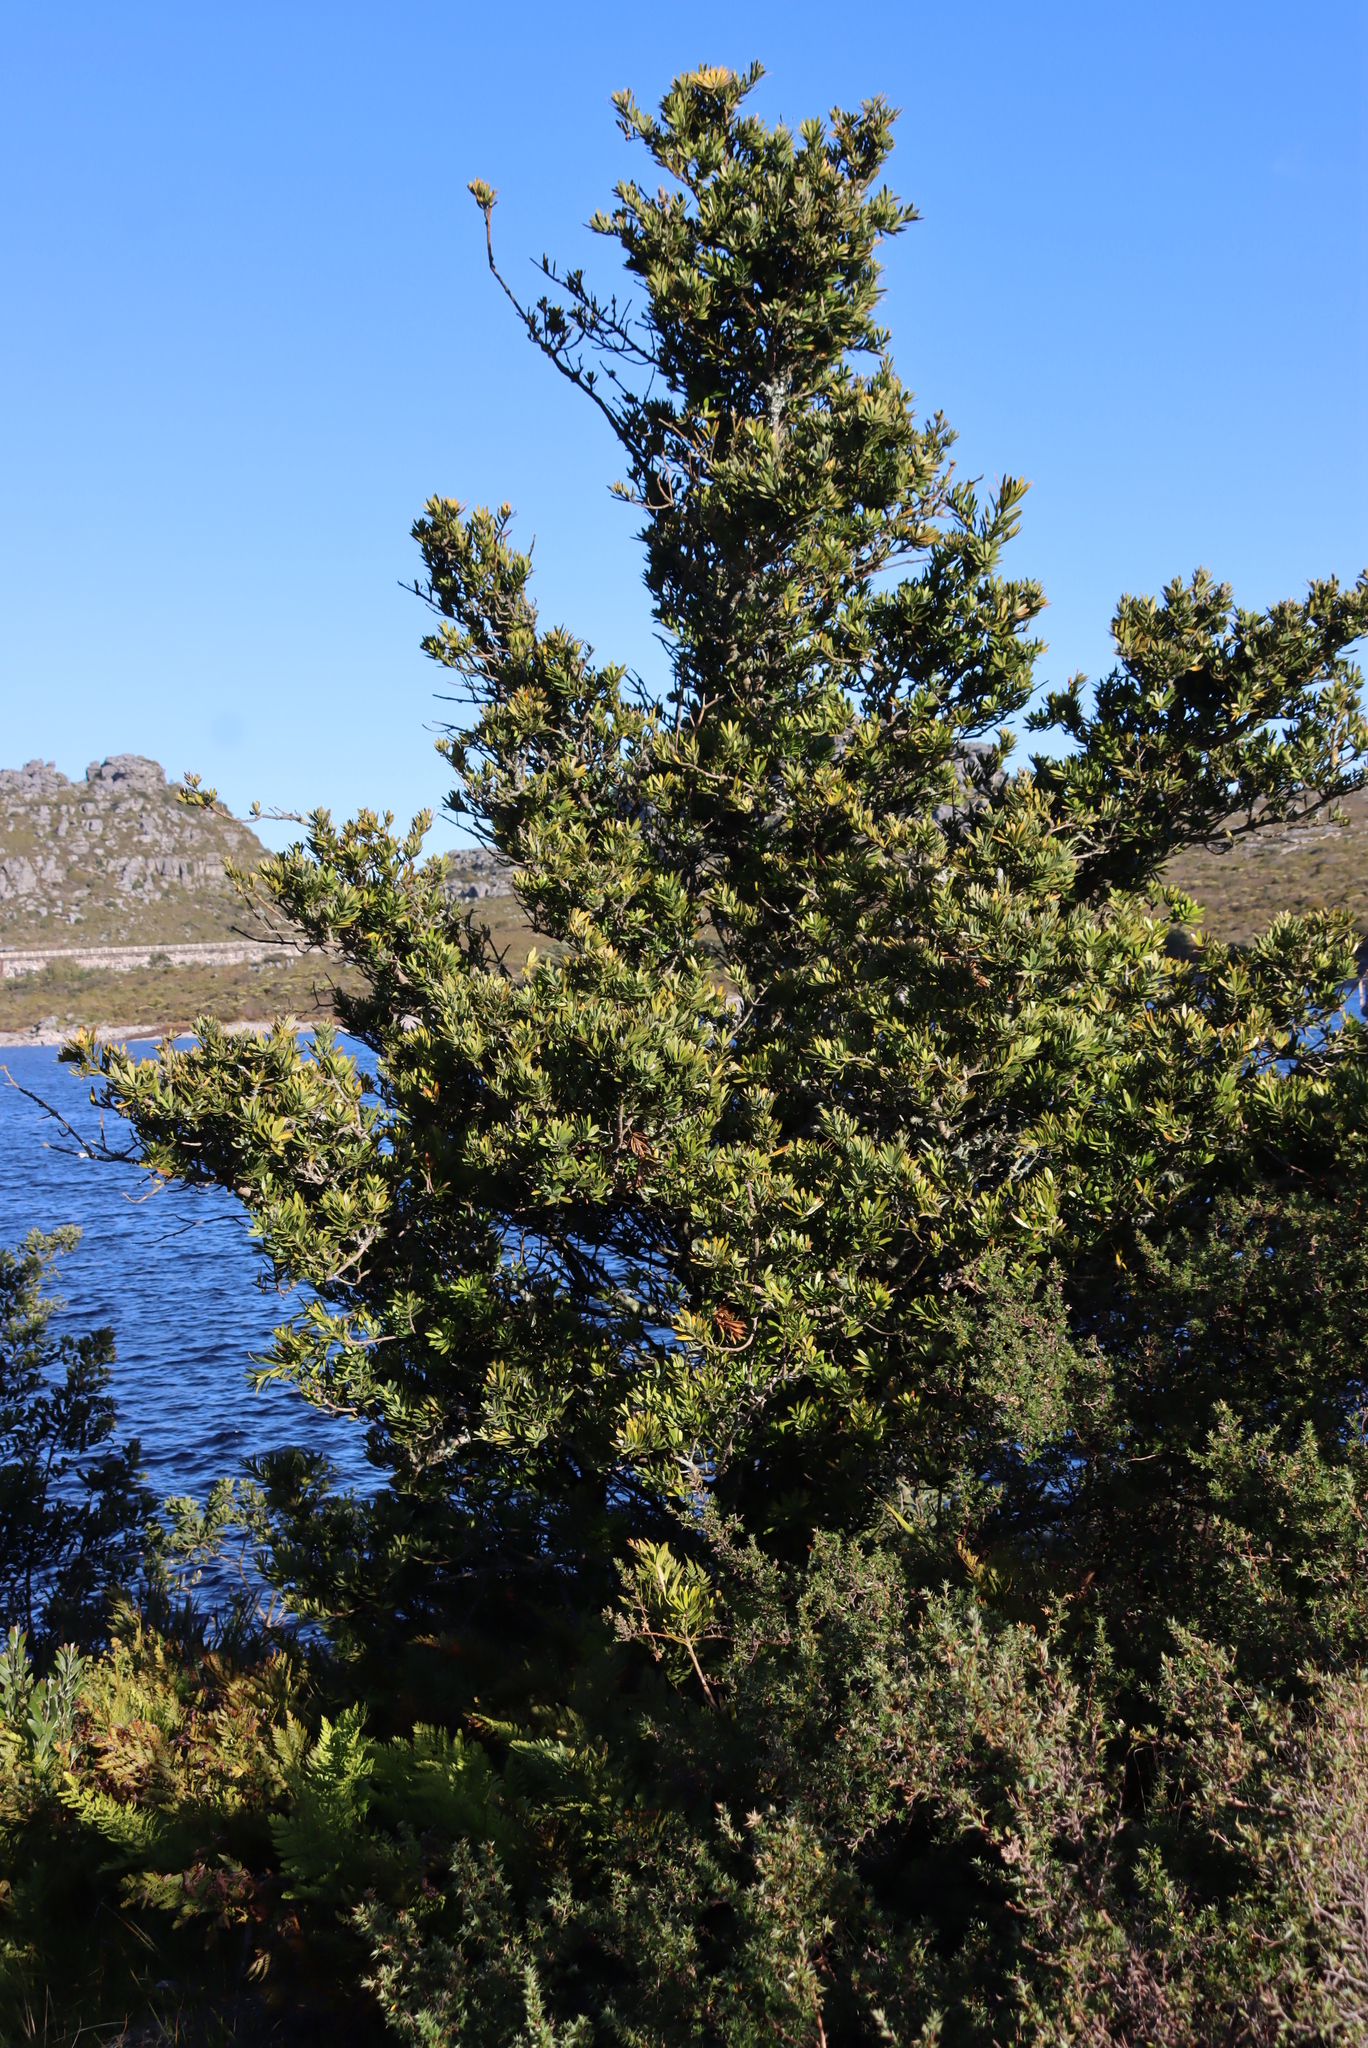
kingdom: Plantae
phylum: Tracheophyta
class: Pinopsida
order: Pinales
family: Podocarpaceae
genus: Podocarpus
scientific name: Podocarpus latifolius
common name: True yellowwood
